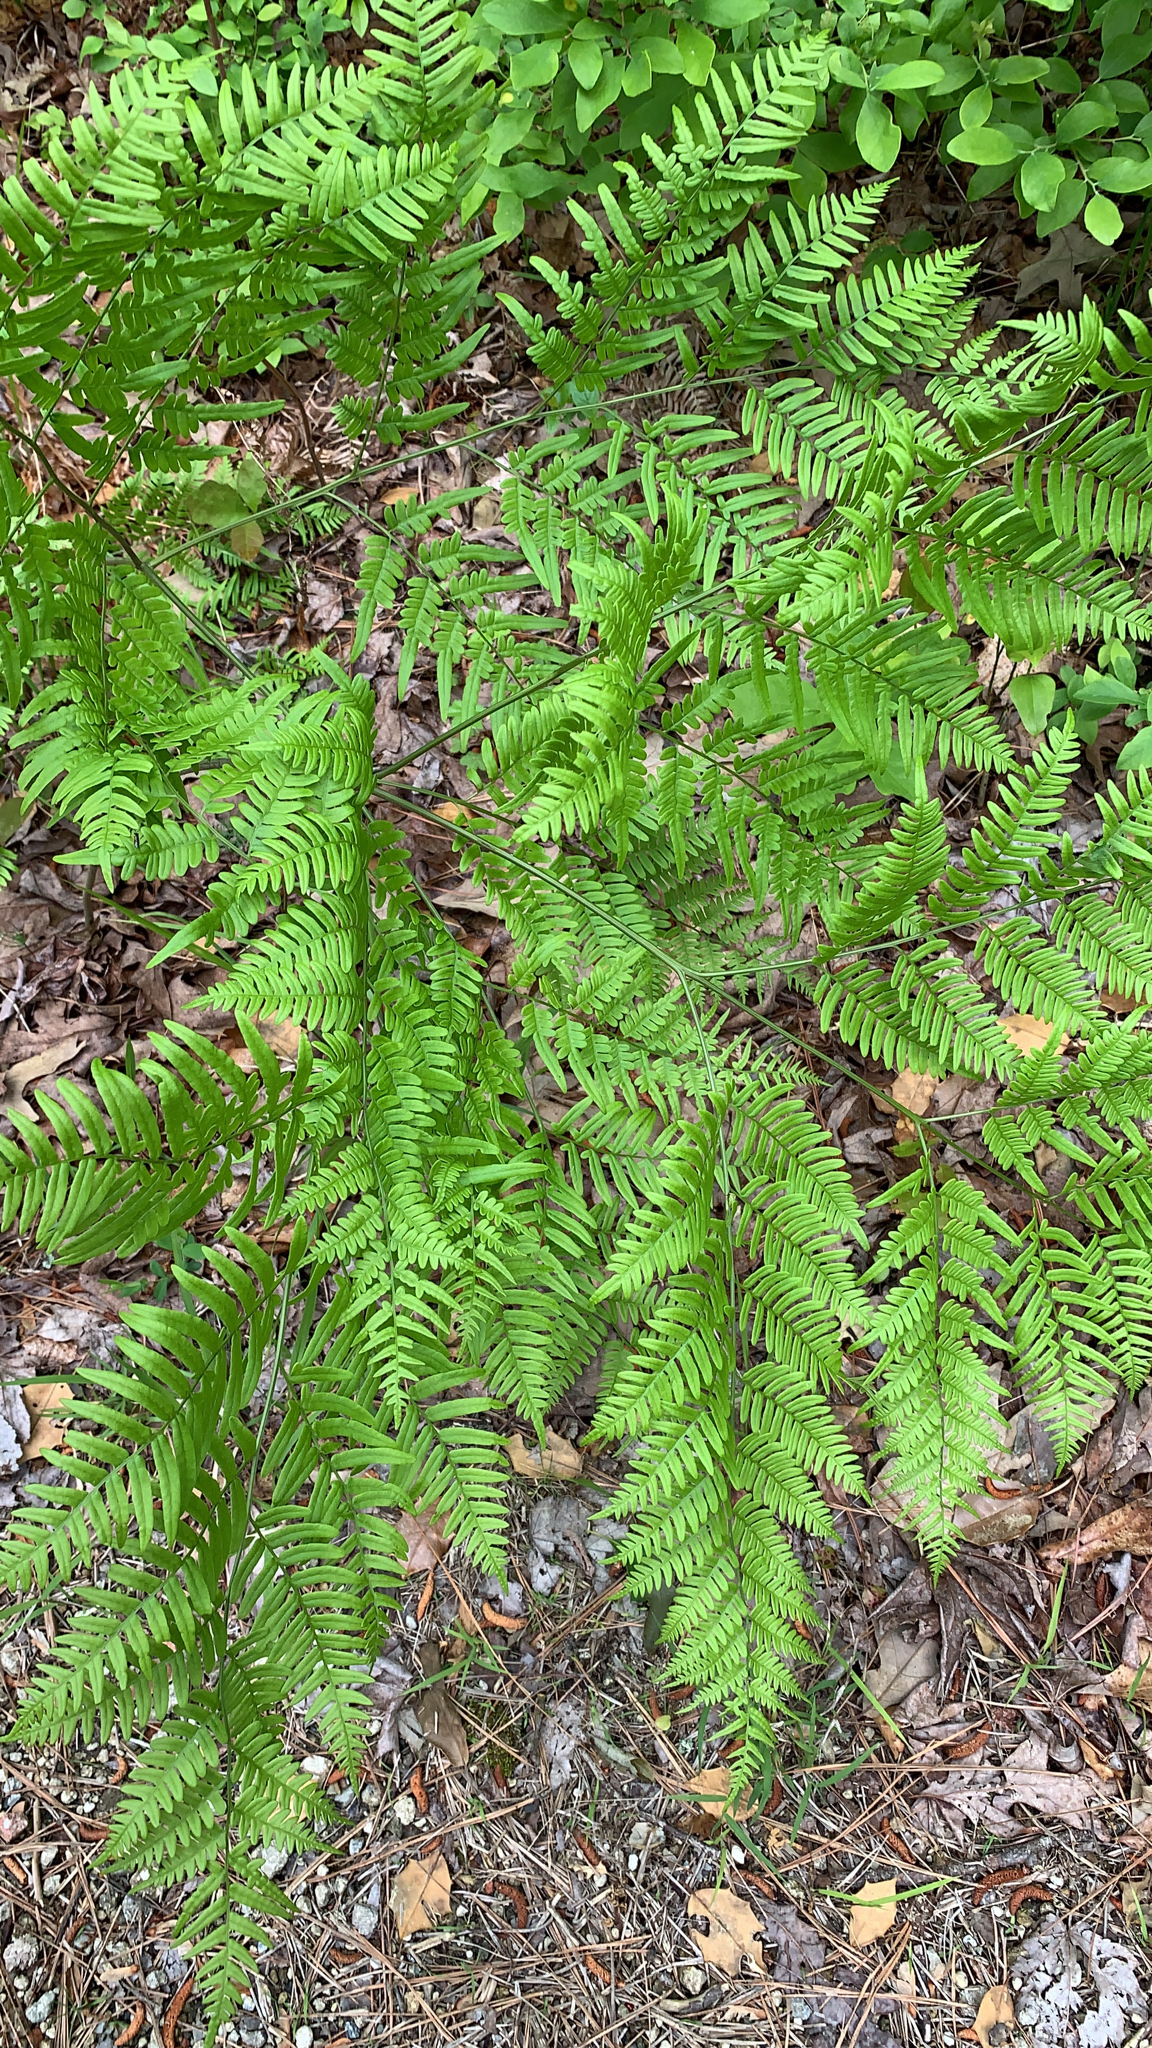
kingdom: Plantae
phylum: Tracheophyta
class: Polypodiopsida
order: Polypodiales
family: Dennstaedtiaceae
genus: Pteridium
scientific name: Pteridium aquilinum
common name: Bracken
